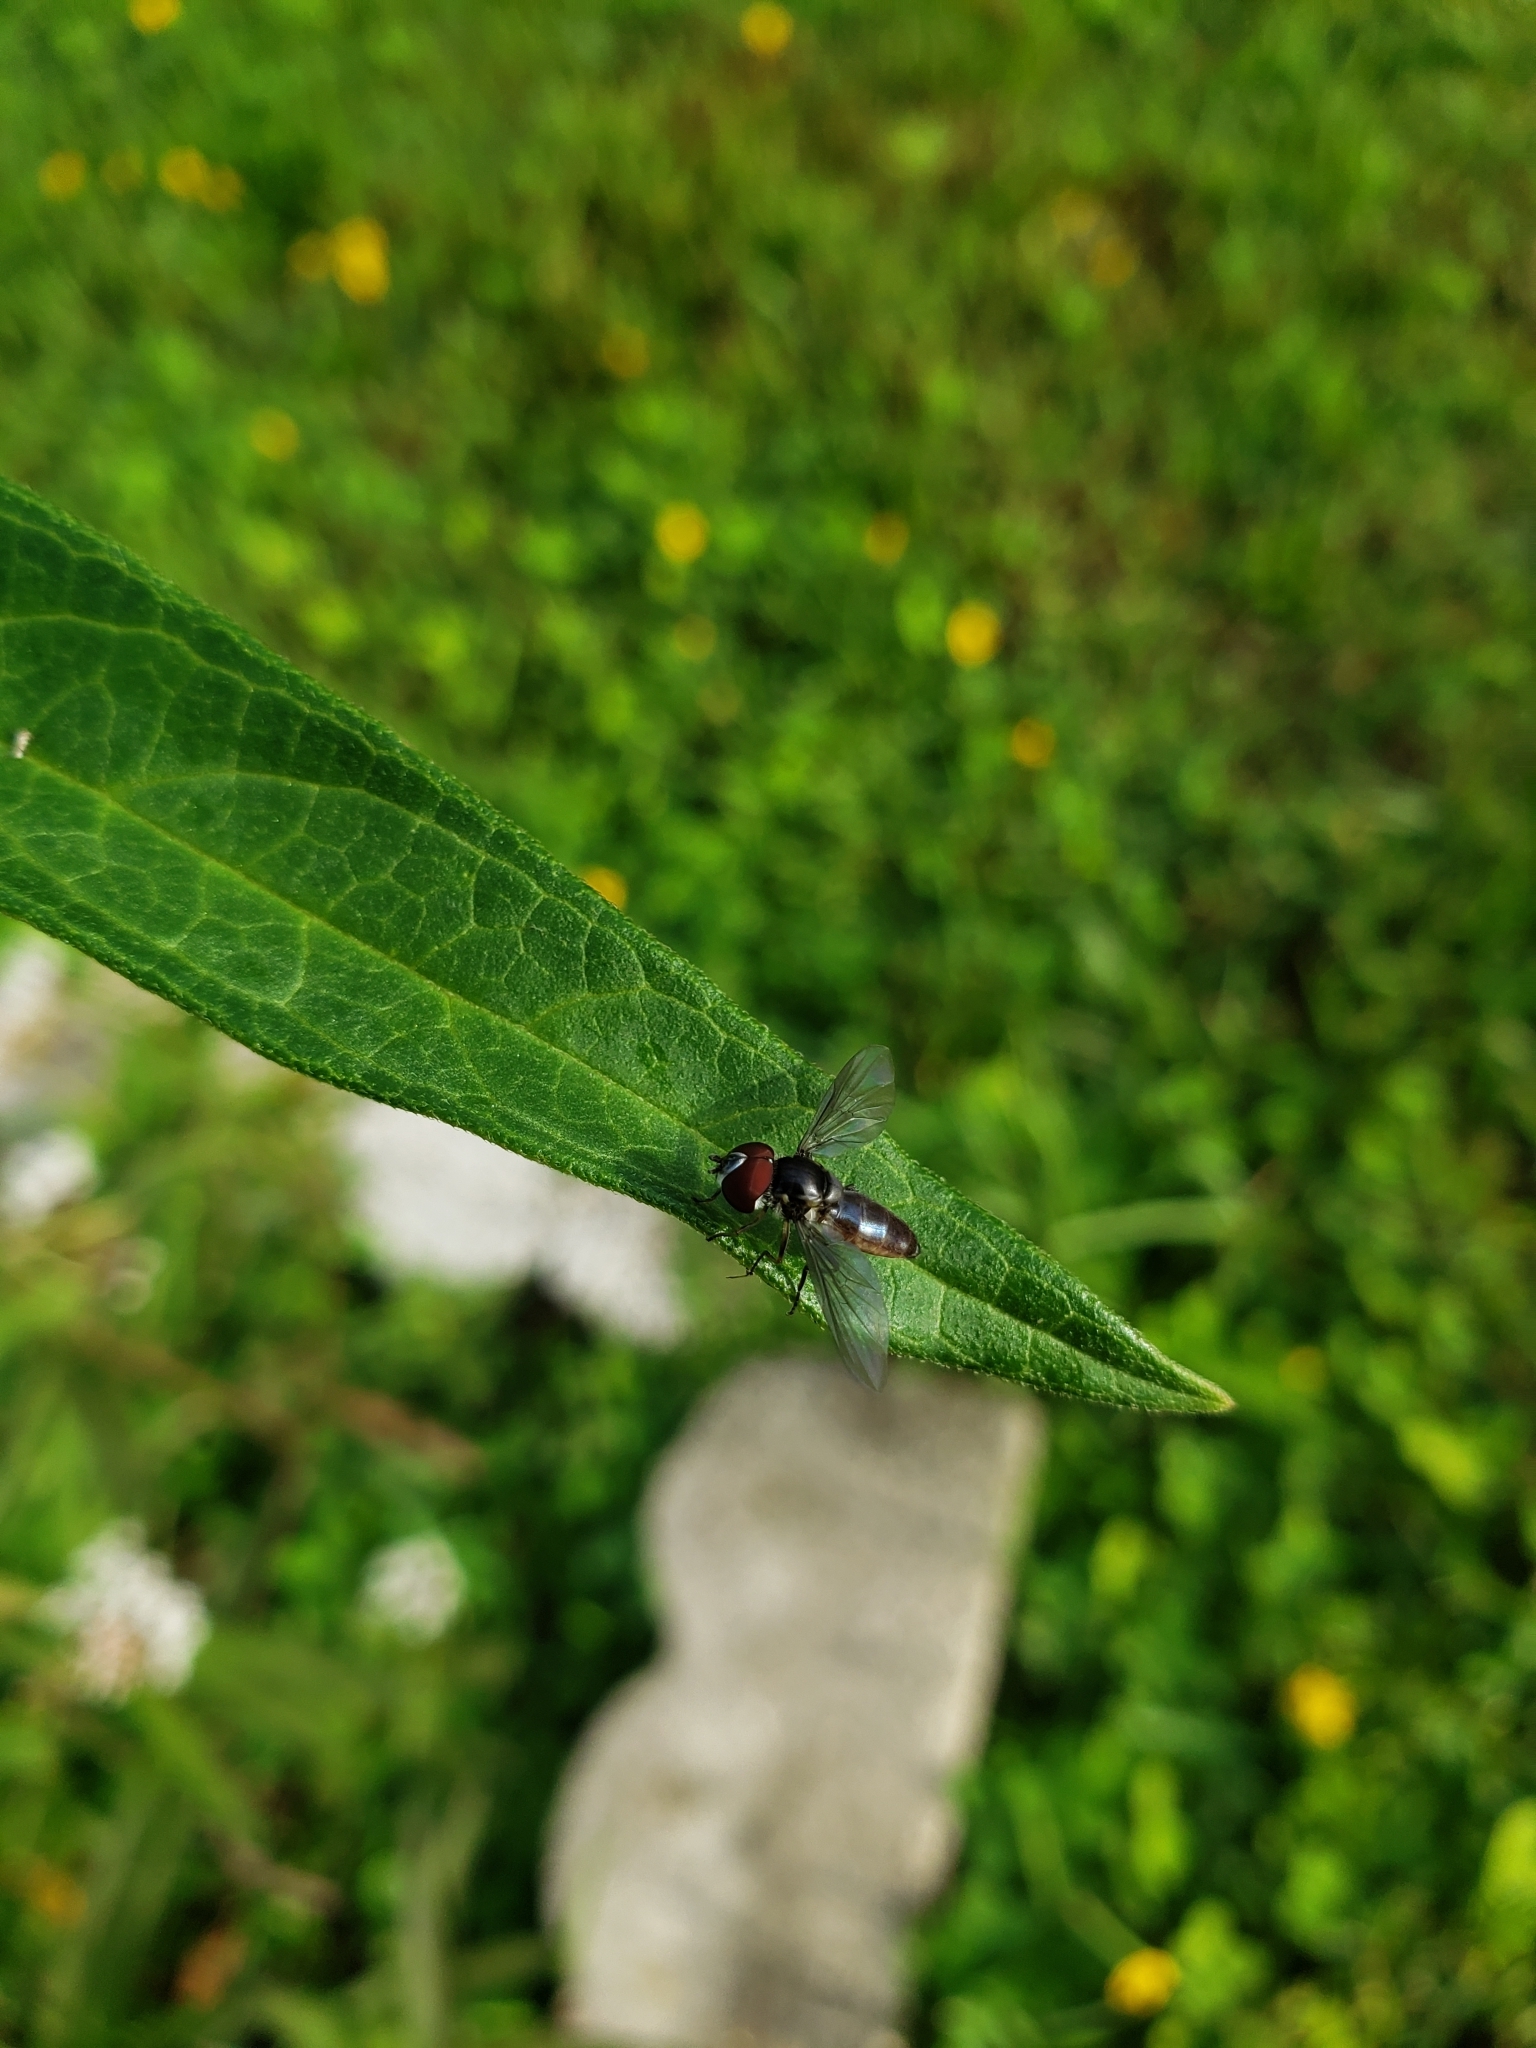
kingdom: Animalia
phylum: Arthropoda
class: Insecta
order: Diptera
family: Syrphidae
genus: Ocyptamus
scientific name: Ocyptamus dimidiatus
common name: Syrphid fly
